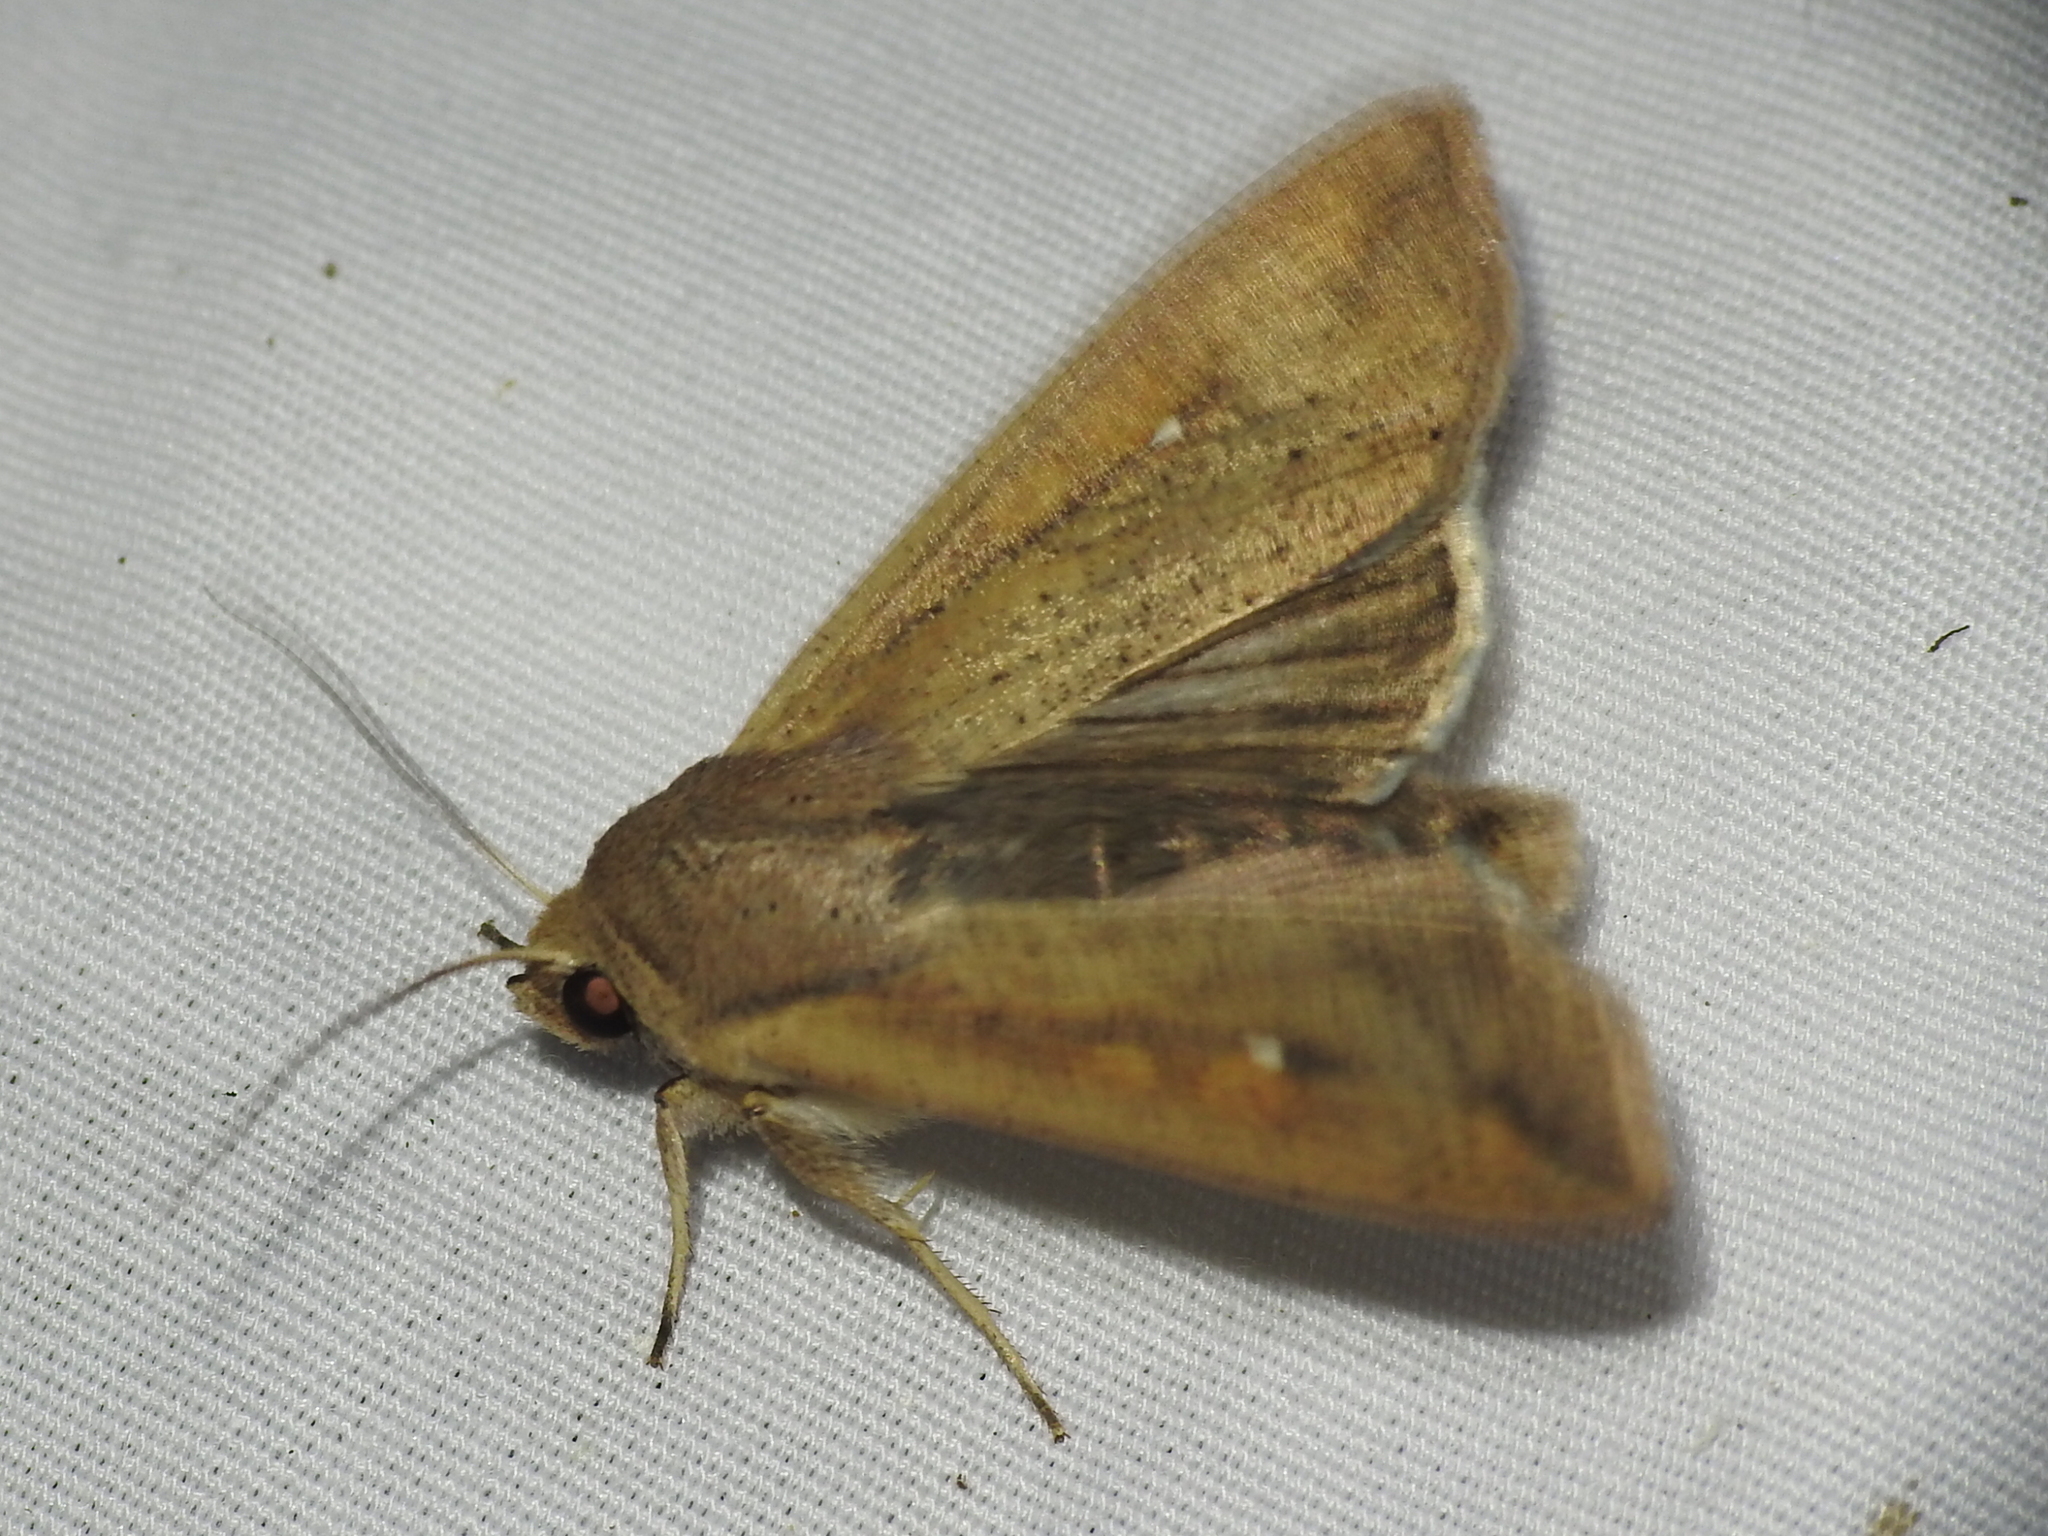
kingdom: Animalia
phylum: Arthropoda
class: Insecta
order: Lepidoptera
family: Noctuidae
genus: Mythimna
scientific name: Mythimna unipuncta
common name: White-speck
